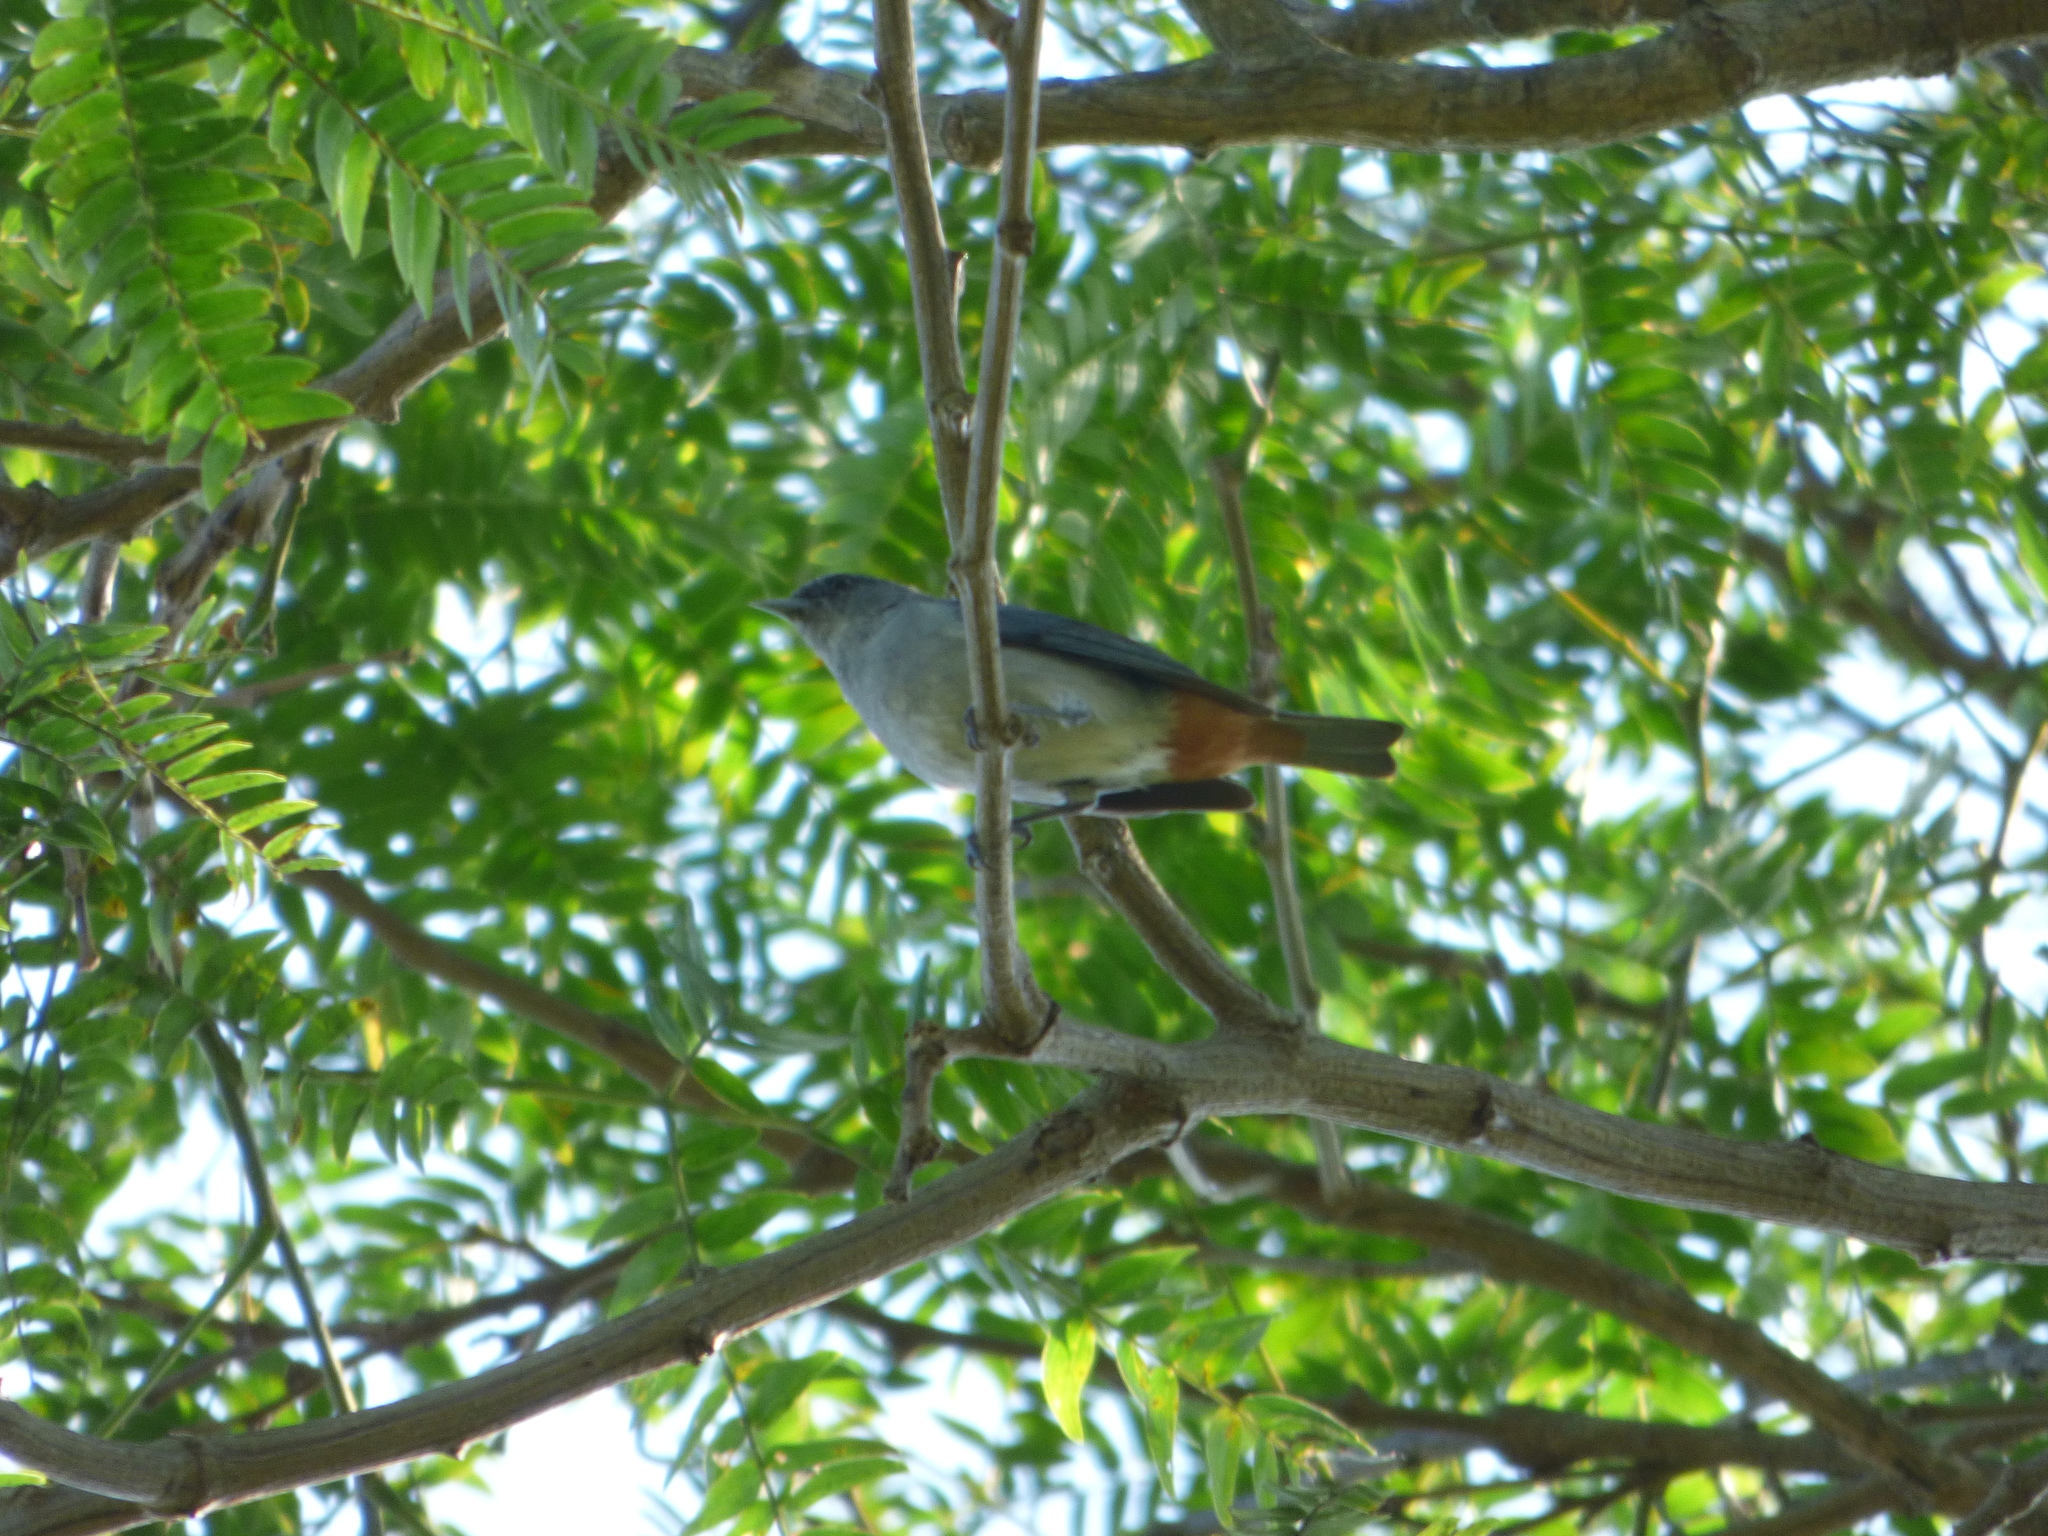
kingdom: Animalia
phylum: Chordata
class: Aves
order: Passeriformes
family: Thraupidae
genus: Conirostrum
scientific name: Conirostrum speciosum
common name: Chestnut-vented conebill
